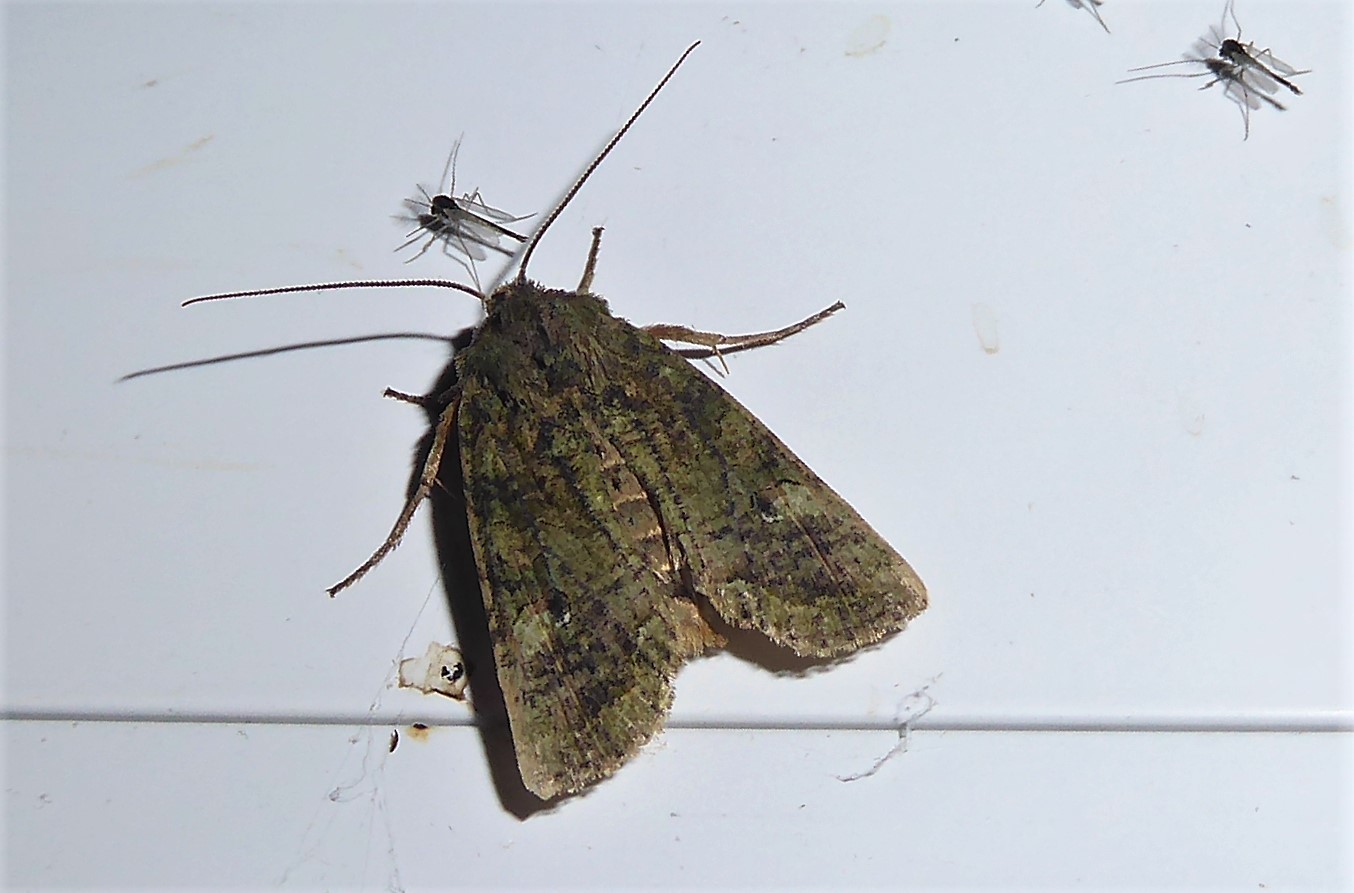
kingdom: Animalia
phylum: Arthropoda
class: Insecta
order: Lepidoptera
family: Noctuidae
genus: Meterana
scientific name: Meterana levis
